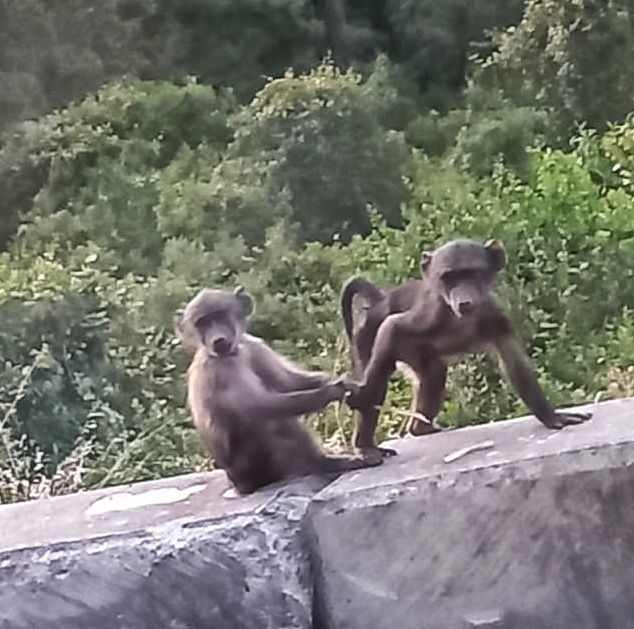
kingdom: Animalia
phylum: Chordata
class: Mammalia
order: Primates
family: Cercopithecidae
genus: Papio
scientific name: Papio ursinus
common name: Chacma baboon
